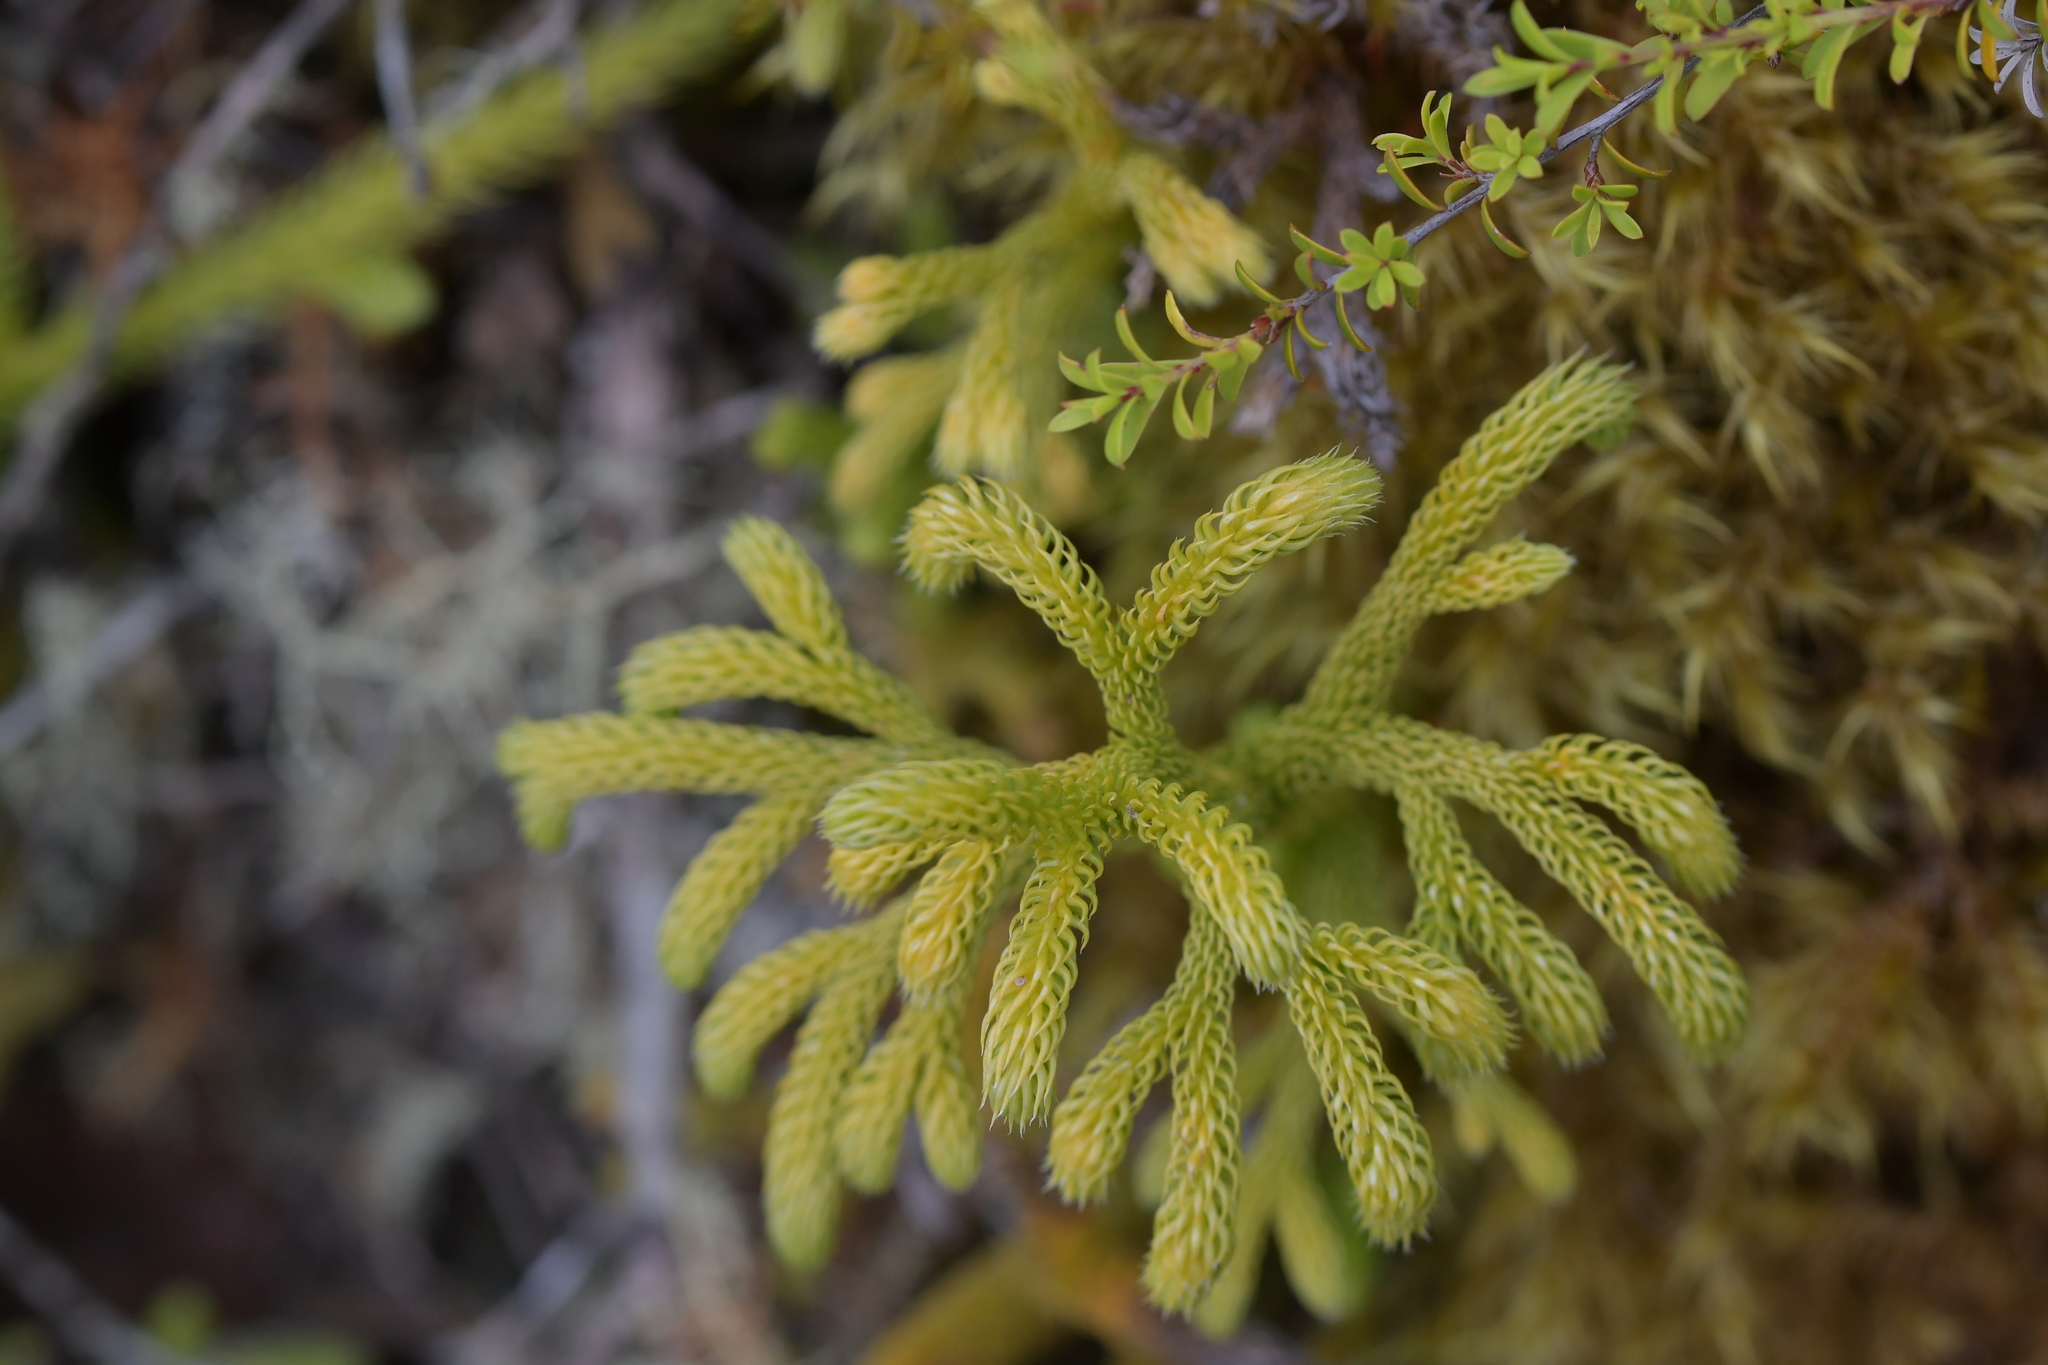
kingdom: Plantae
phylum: Tracheophyta
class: Lycopodiopsida
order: Lycopodiales
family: Lycopodiaceae
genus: Palhinhaea
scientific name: Palhinhaea cernua
